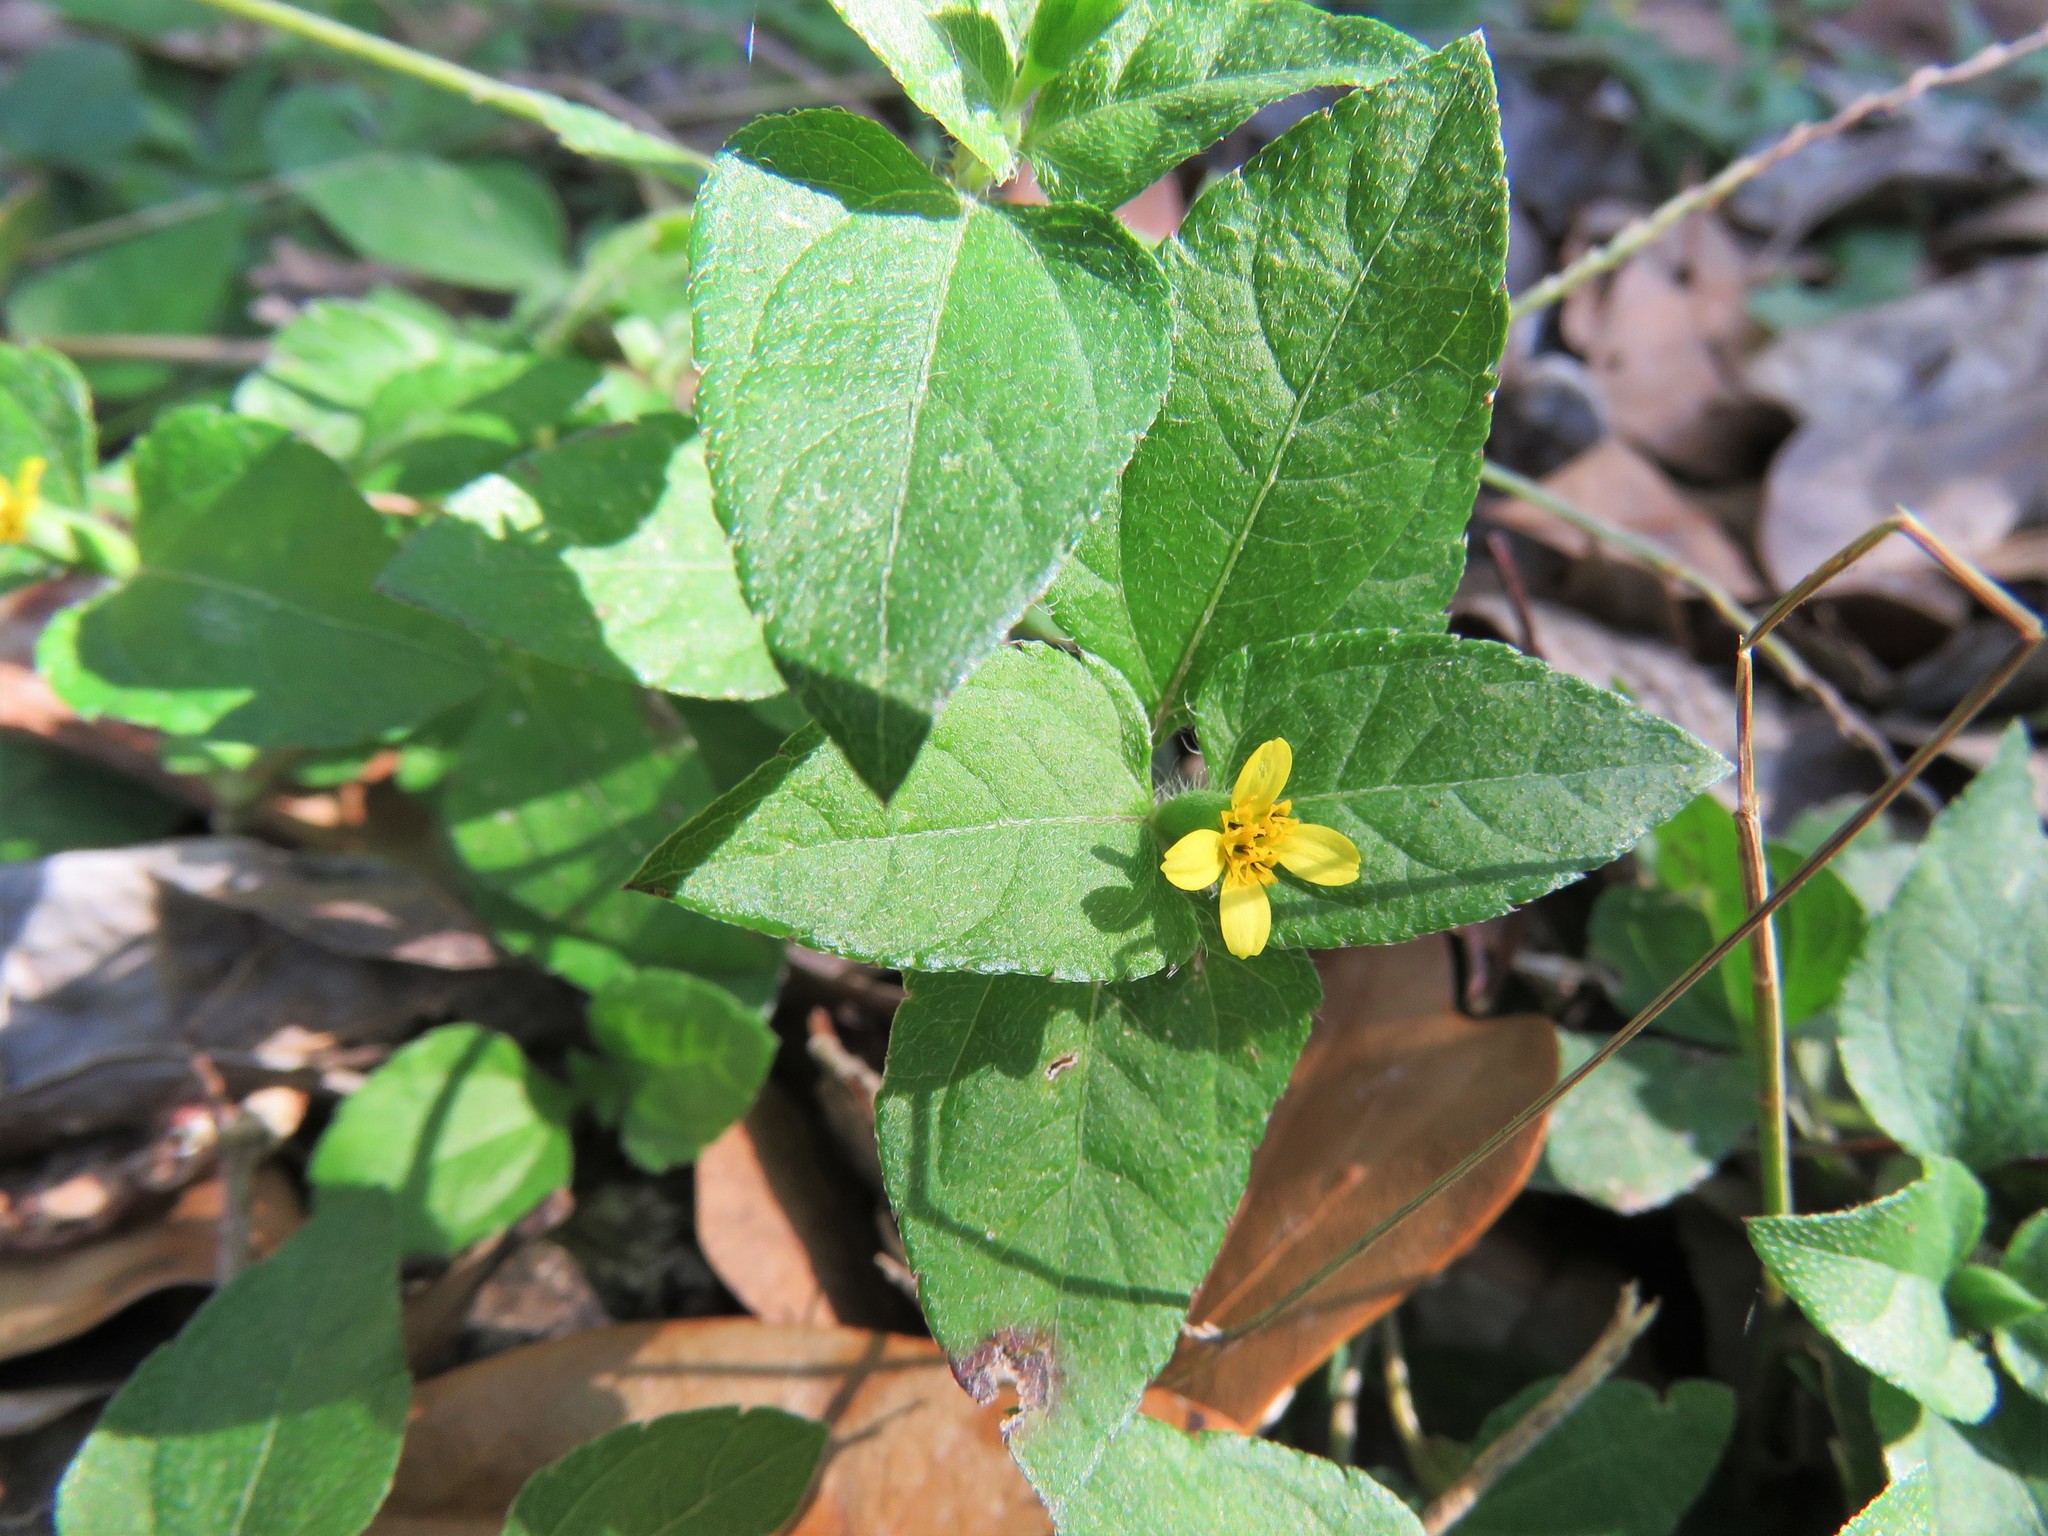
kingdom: Plantae
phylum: Tracheophyta
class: Magnoliopsida
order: Asterales
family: Asteraceae
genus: Calyptocarpus
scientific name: Calyptocarpus vialis
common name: Straggler daisy
